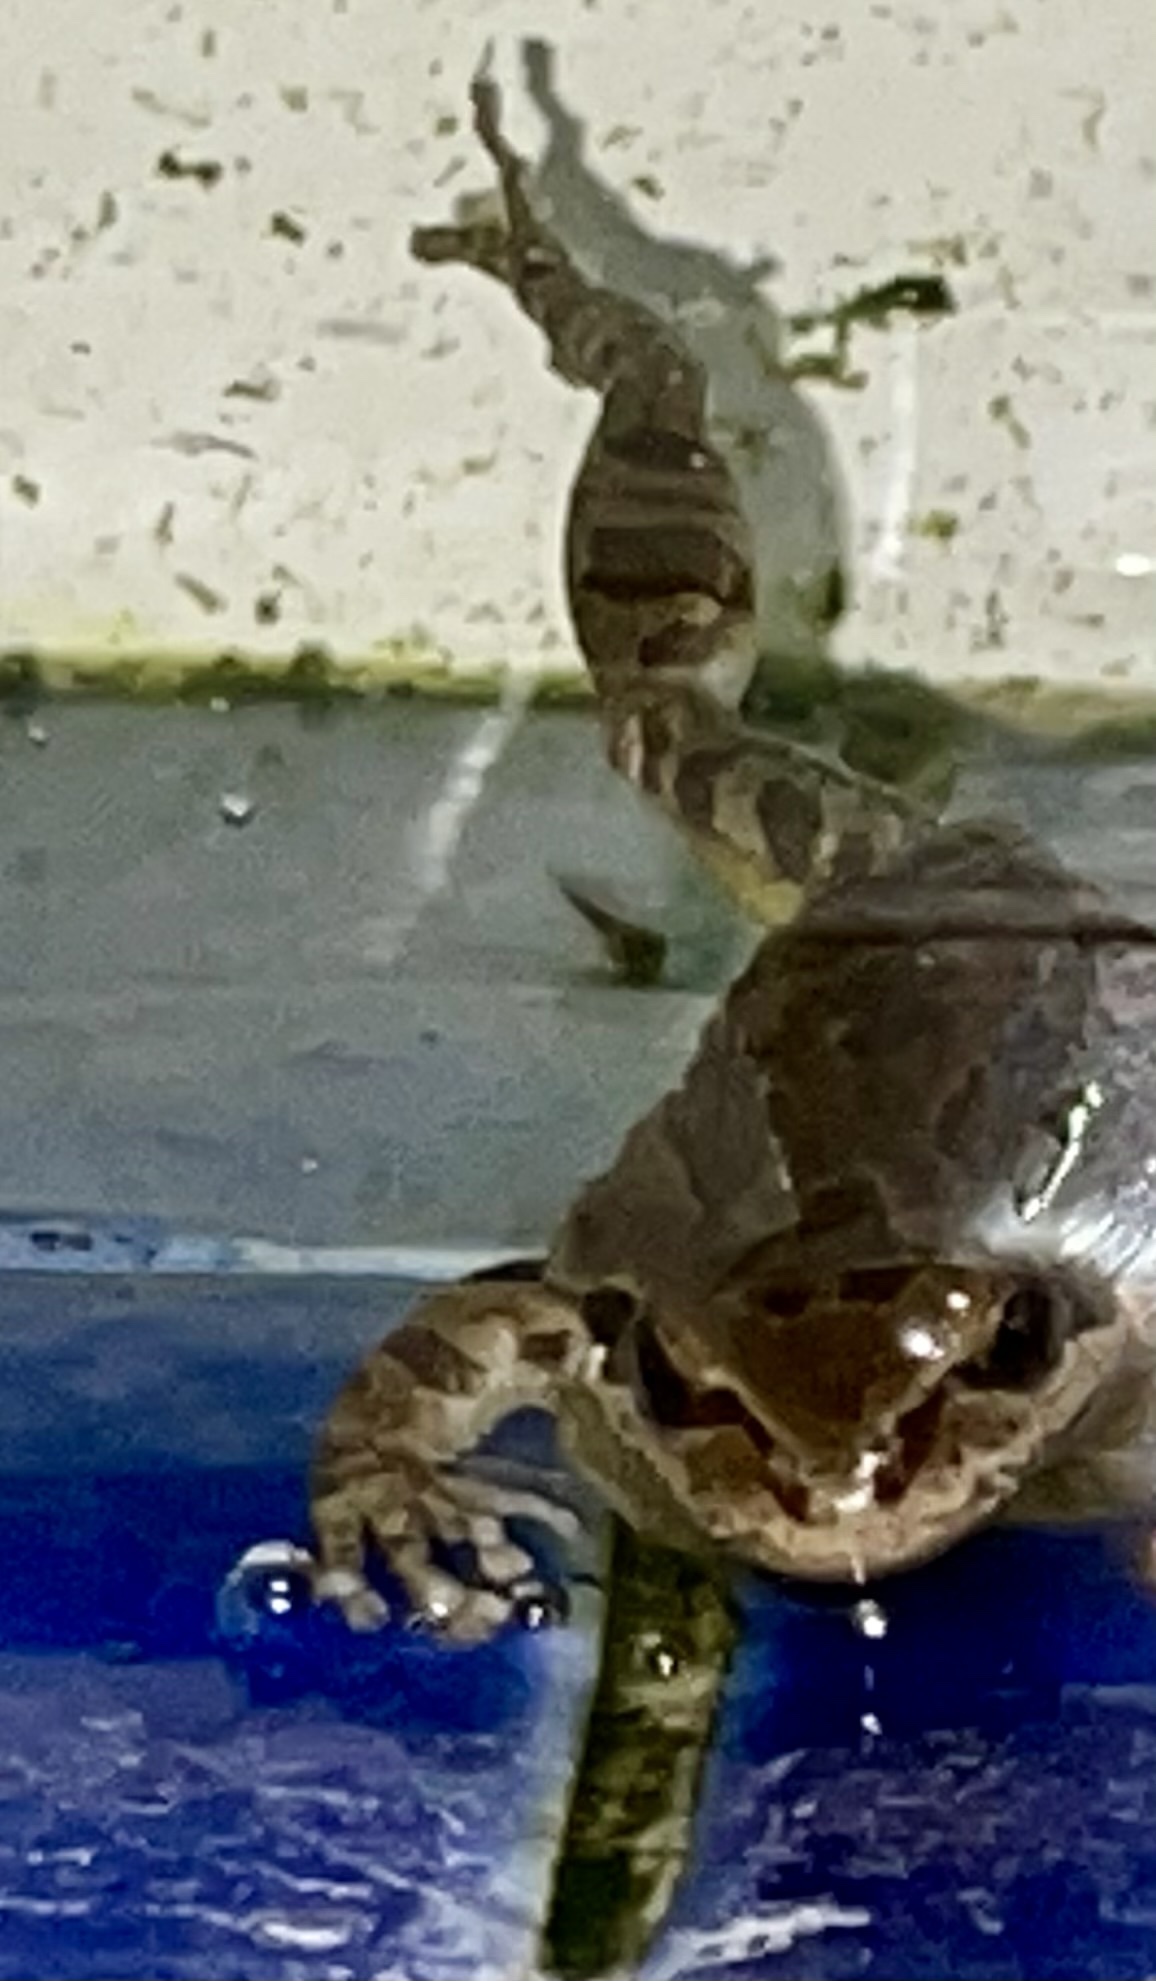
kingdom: Animalia
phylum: Chordata
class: Amphibia
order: Anura
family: Hylidae
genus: Pseudacris
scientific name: Pseudacris regilla
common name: Pacific chorus frog
